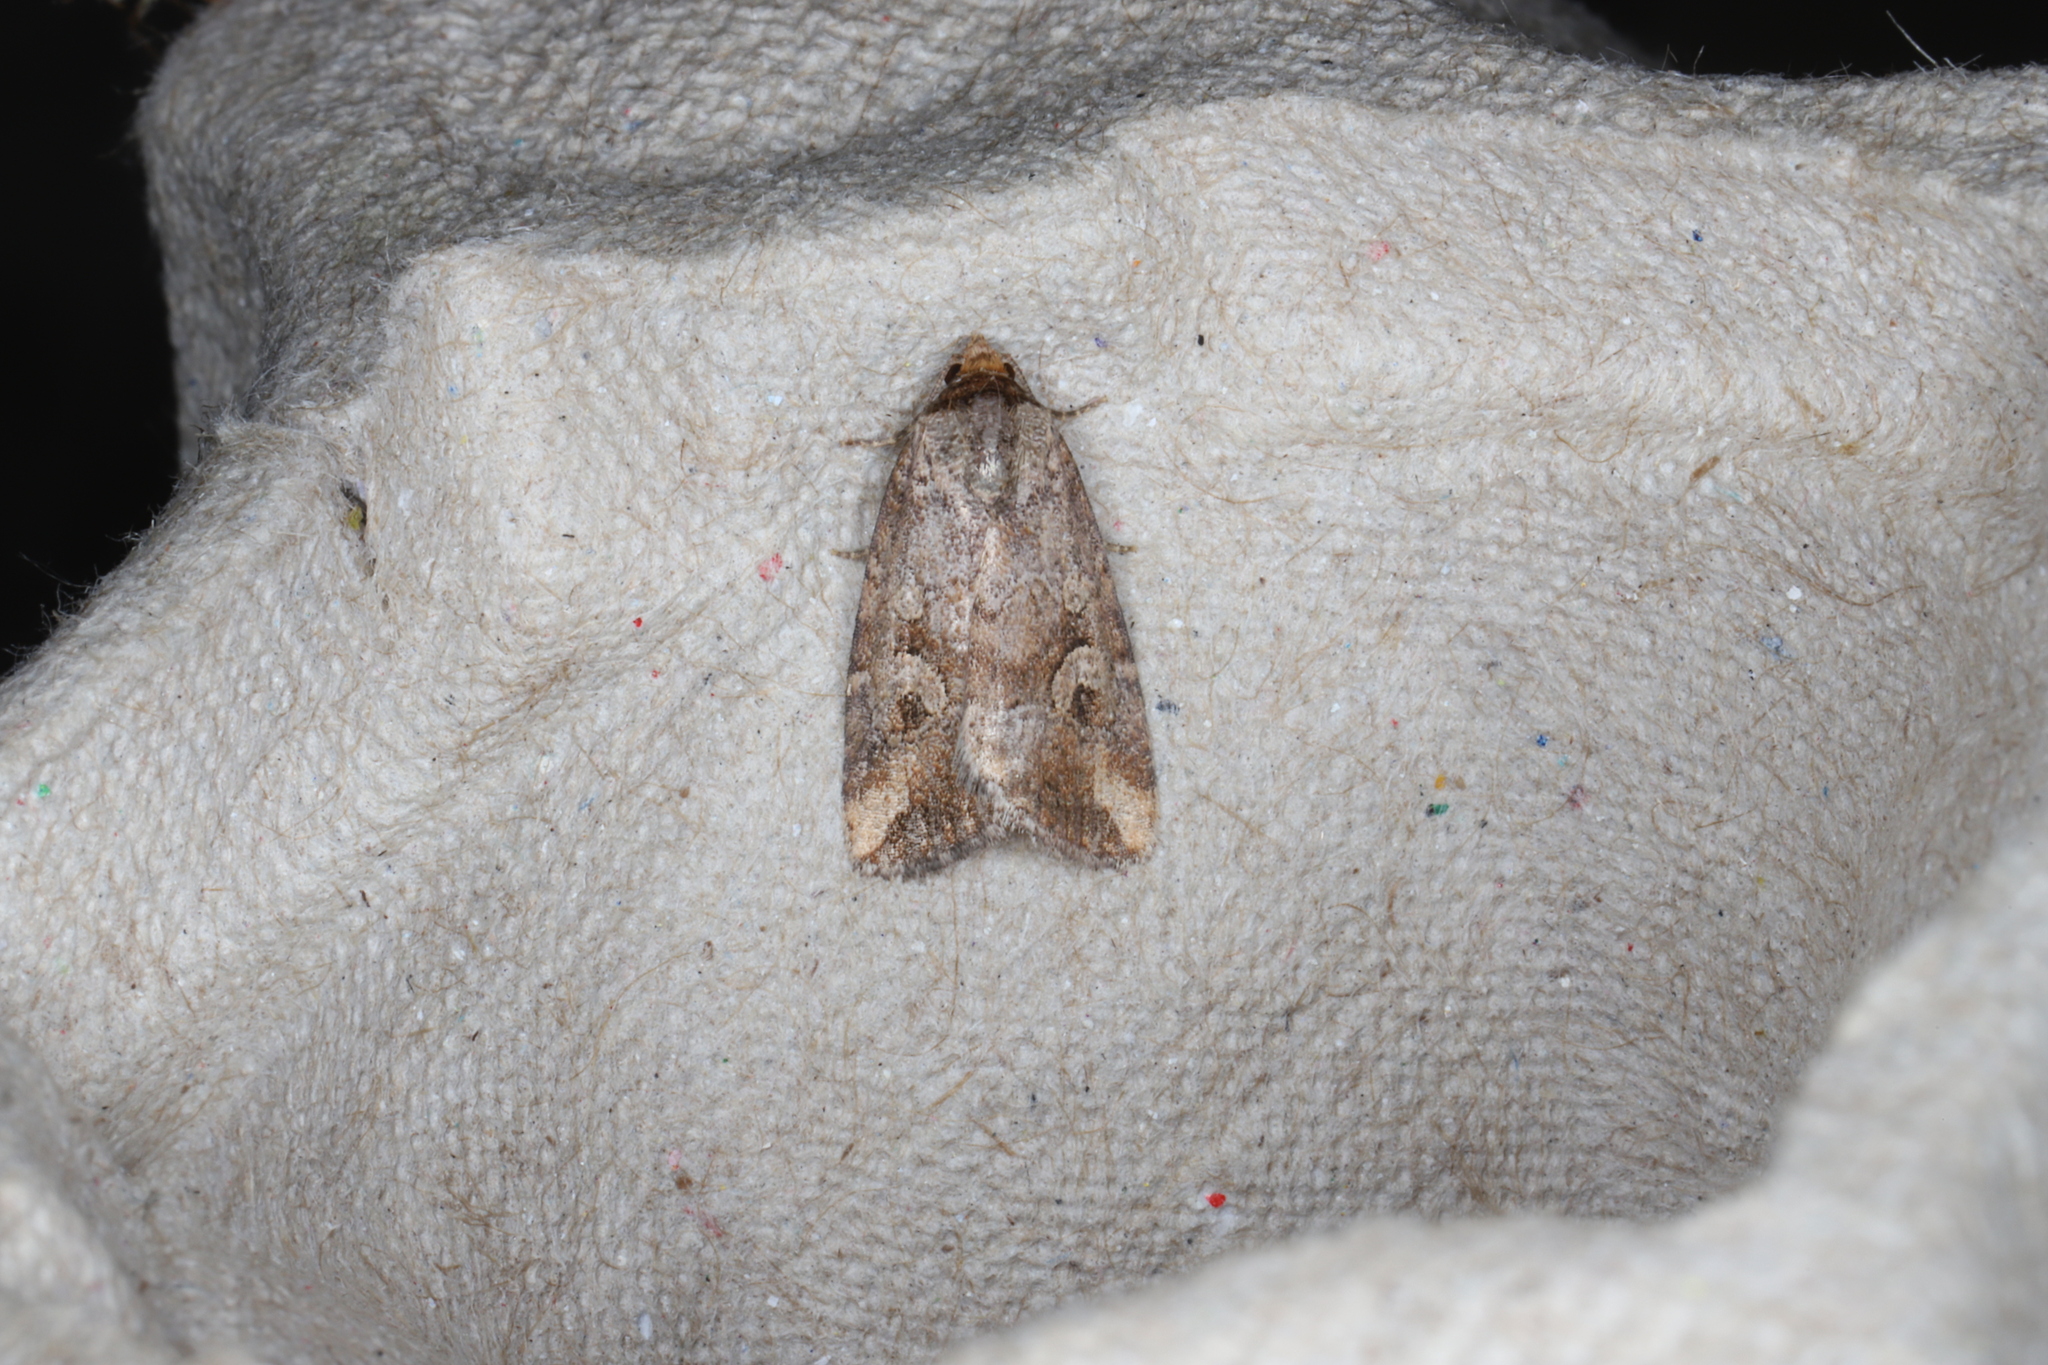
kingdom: Animalia
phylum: Arthropoda
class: Insecta
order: Lepidoptera
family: Noctuidae
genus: Elaphria
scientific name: Elaphria alapallida
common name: Pale-winged midget
